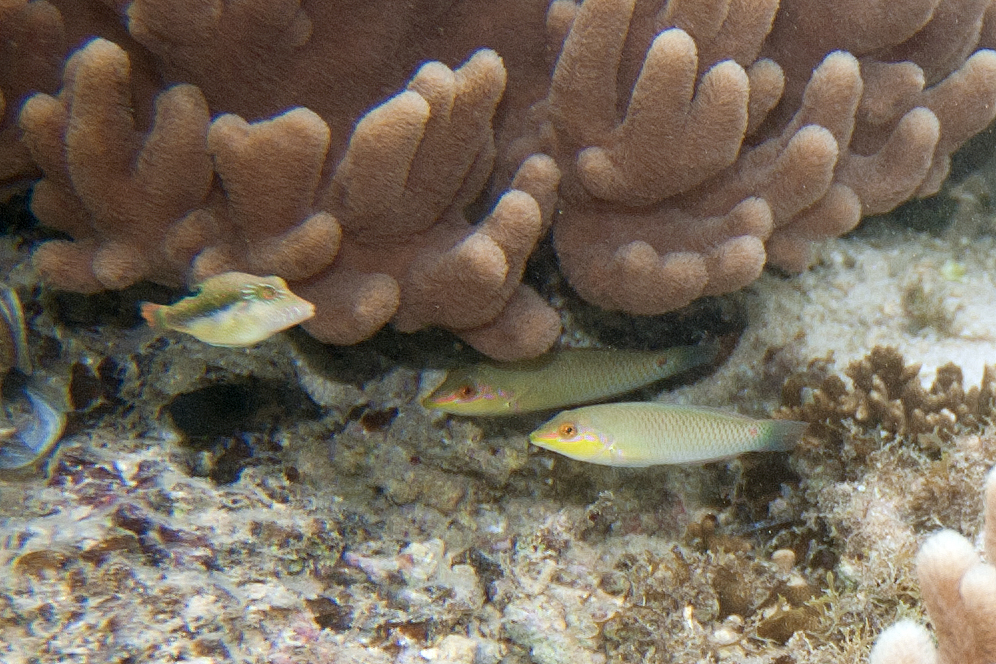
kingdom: Animalia
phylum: Chordata
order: Tetraodontiformes
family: Tetraodontidae
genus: Canthigaster
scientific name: Canthigaster bennetti
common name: Bennett's pufferfish
